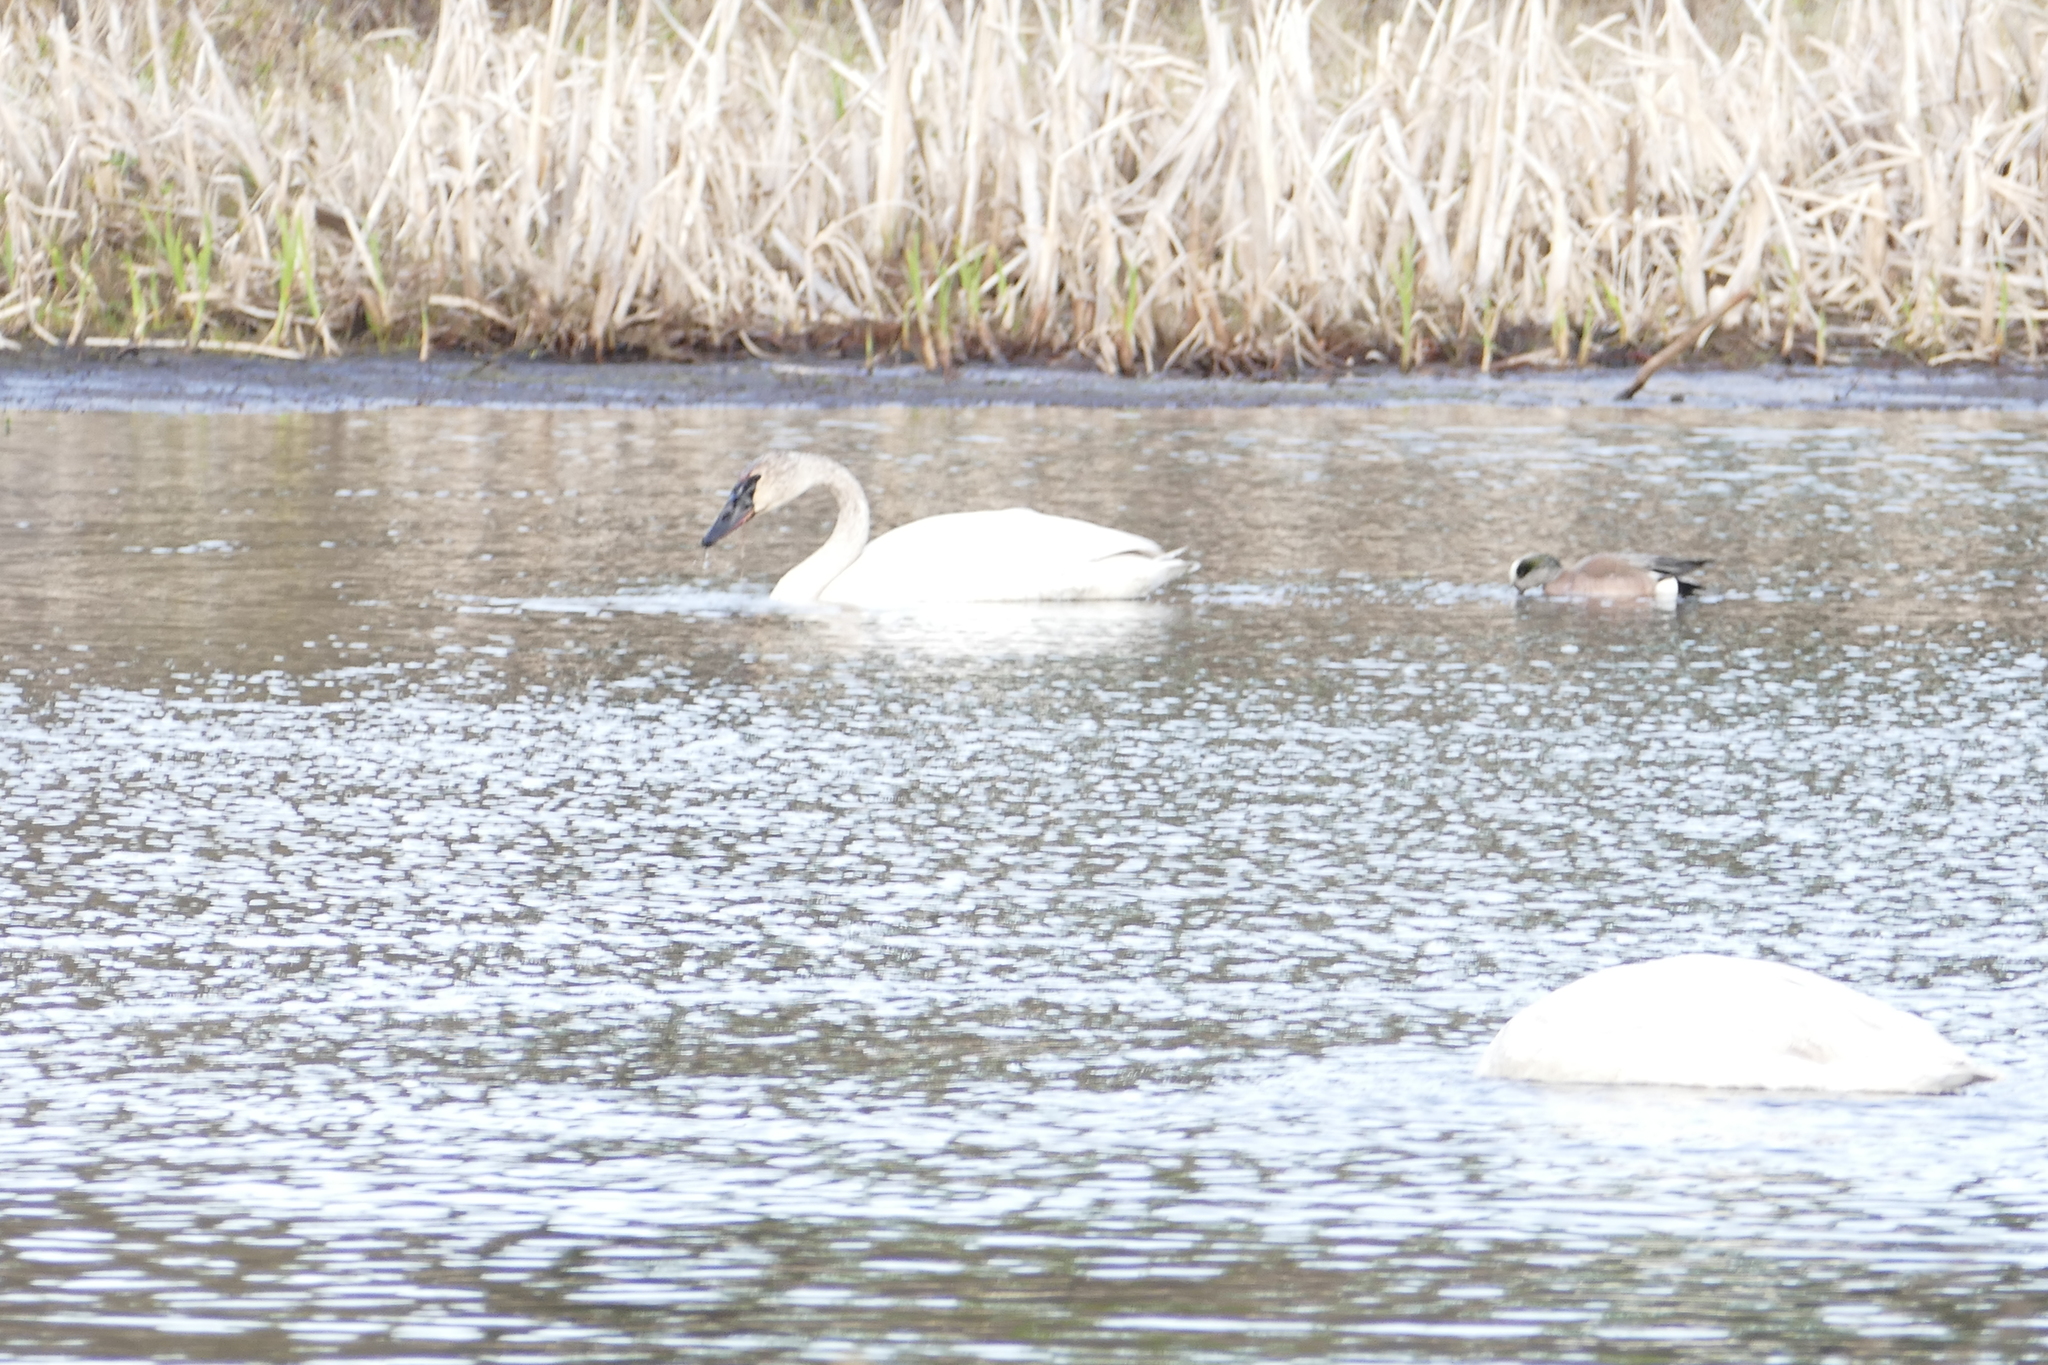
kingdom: Animalia
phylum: Chordata
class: Aves
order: Anseriformes
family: Anatidae
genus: Cygnus
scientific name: Cygnus buccinator
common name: Trumpeter swan
